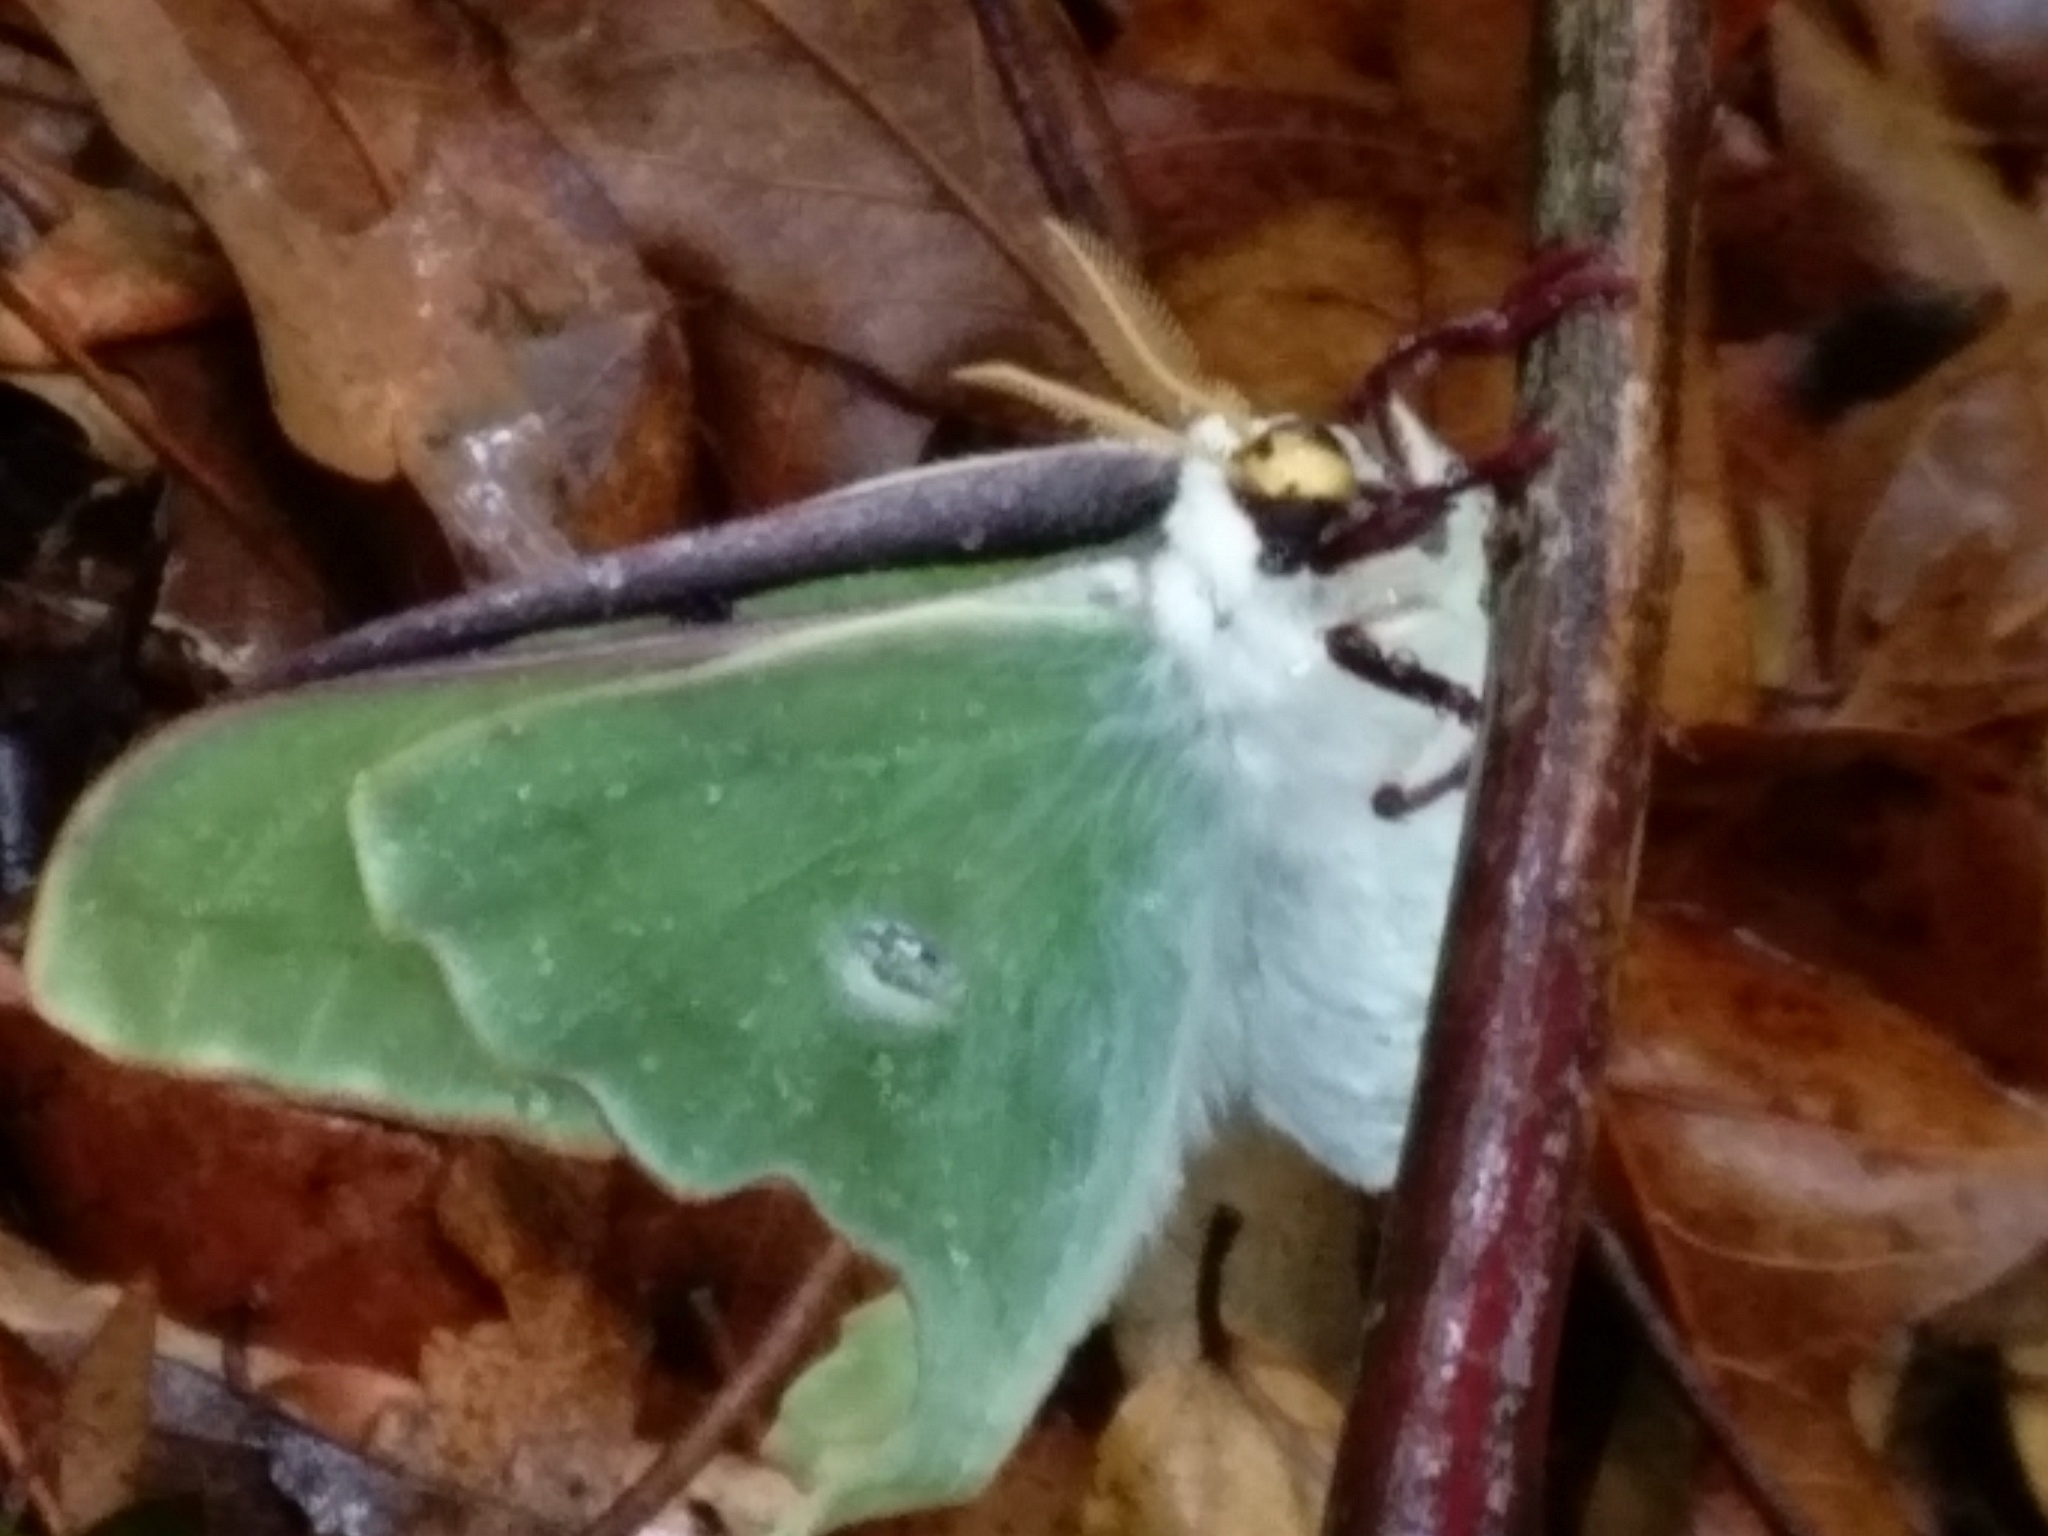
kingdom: Animalia
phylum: Arthropoda
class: Insecta
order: Lepidoptera
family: Saturniidae
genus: Actias
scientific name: Actias luna
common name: Luna moth
